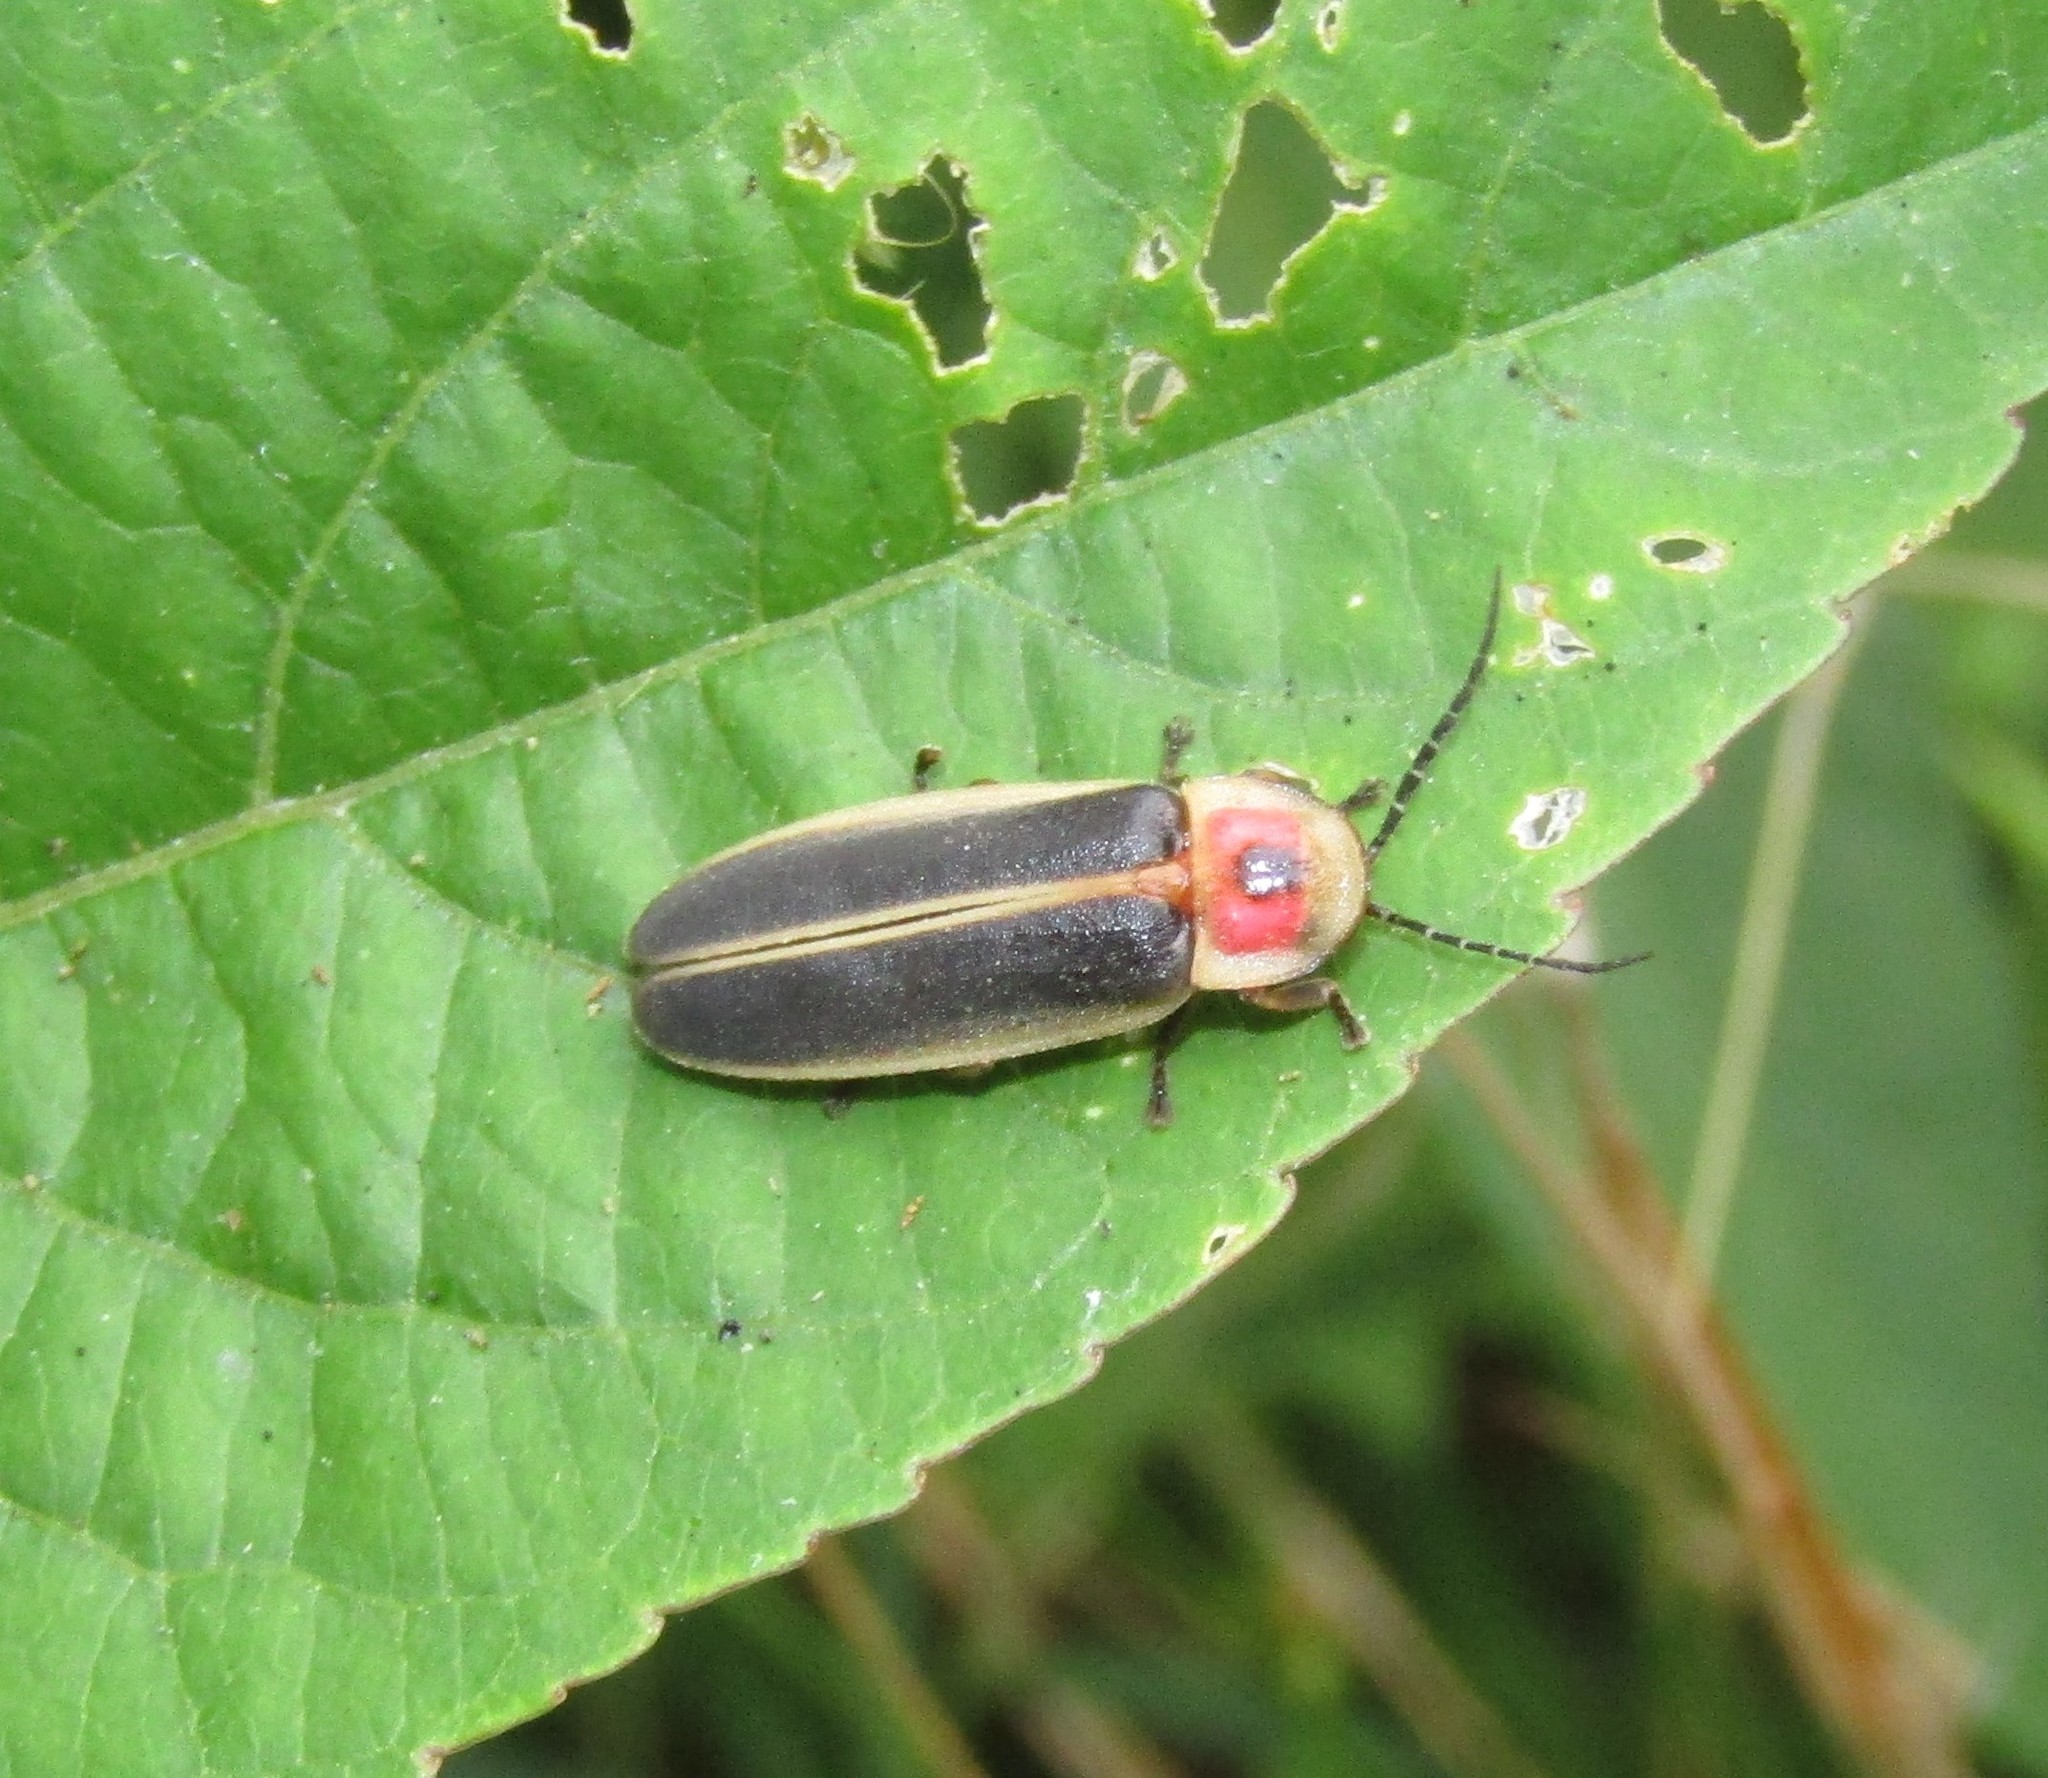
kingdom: Animalia
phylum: Arthropoda
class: Insecta
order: Coleoptera
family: Lampyridae
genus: Photinus
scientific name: Photinus pyralis
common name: Big dipper firefly
